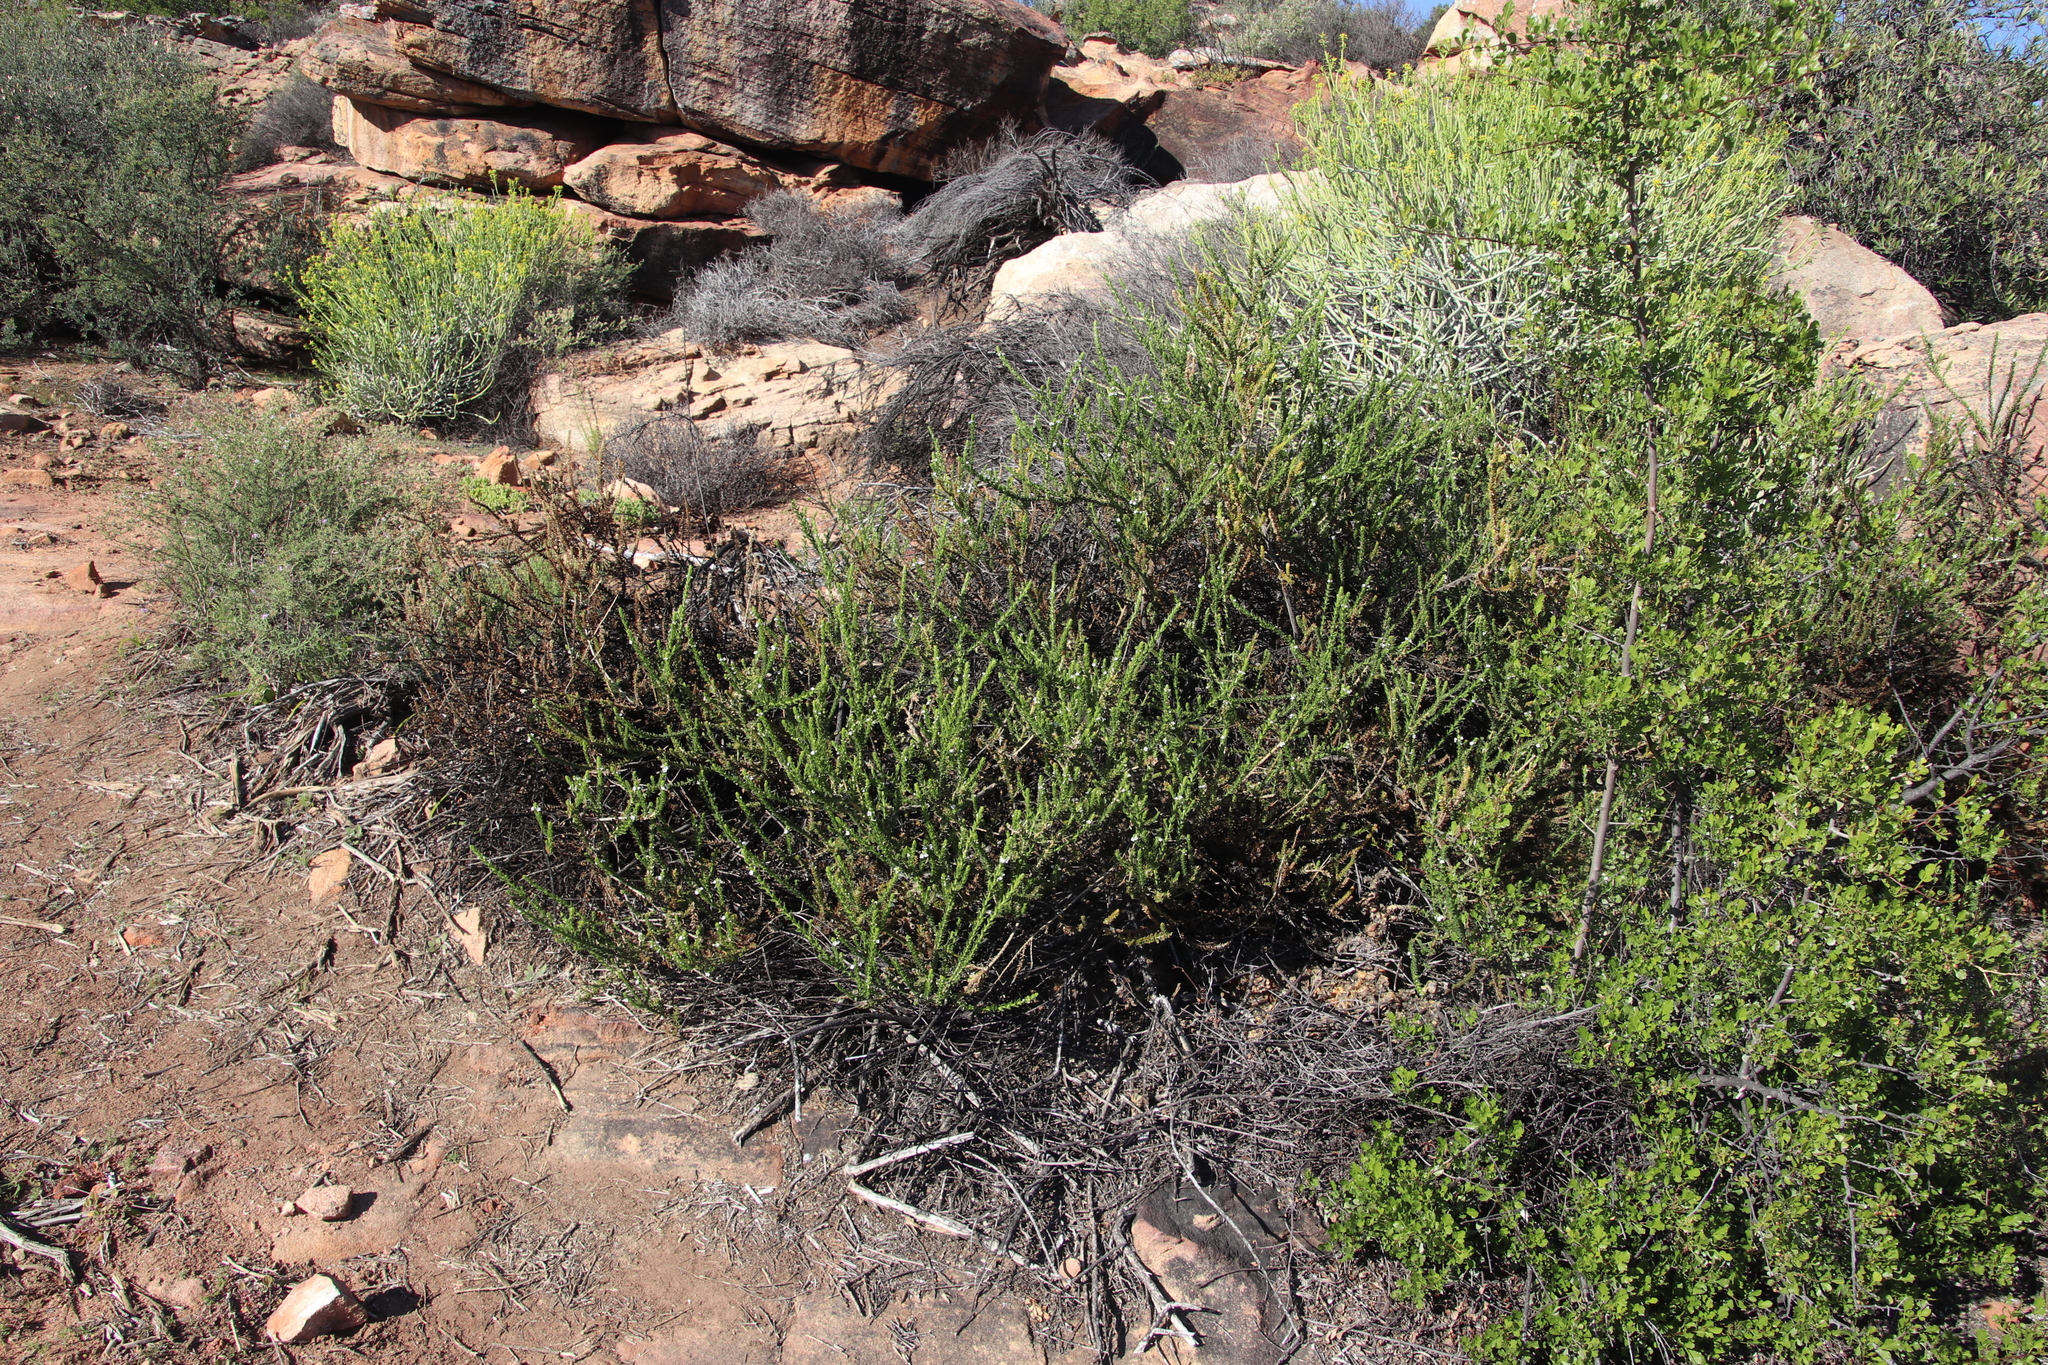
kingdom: Plantae
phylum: Tracheophyta
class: Magnoliopsida
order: Lamiales
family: Scrophulariaceae
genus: Oftia
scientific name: Oftia africana
